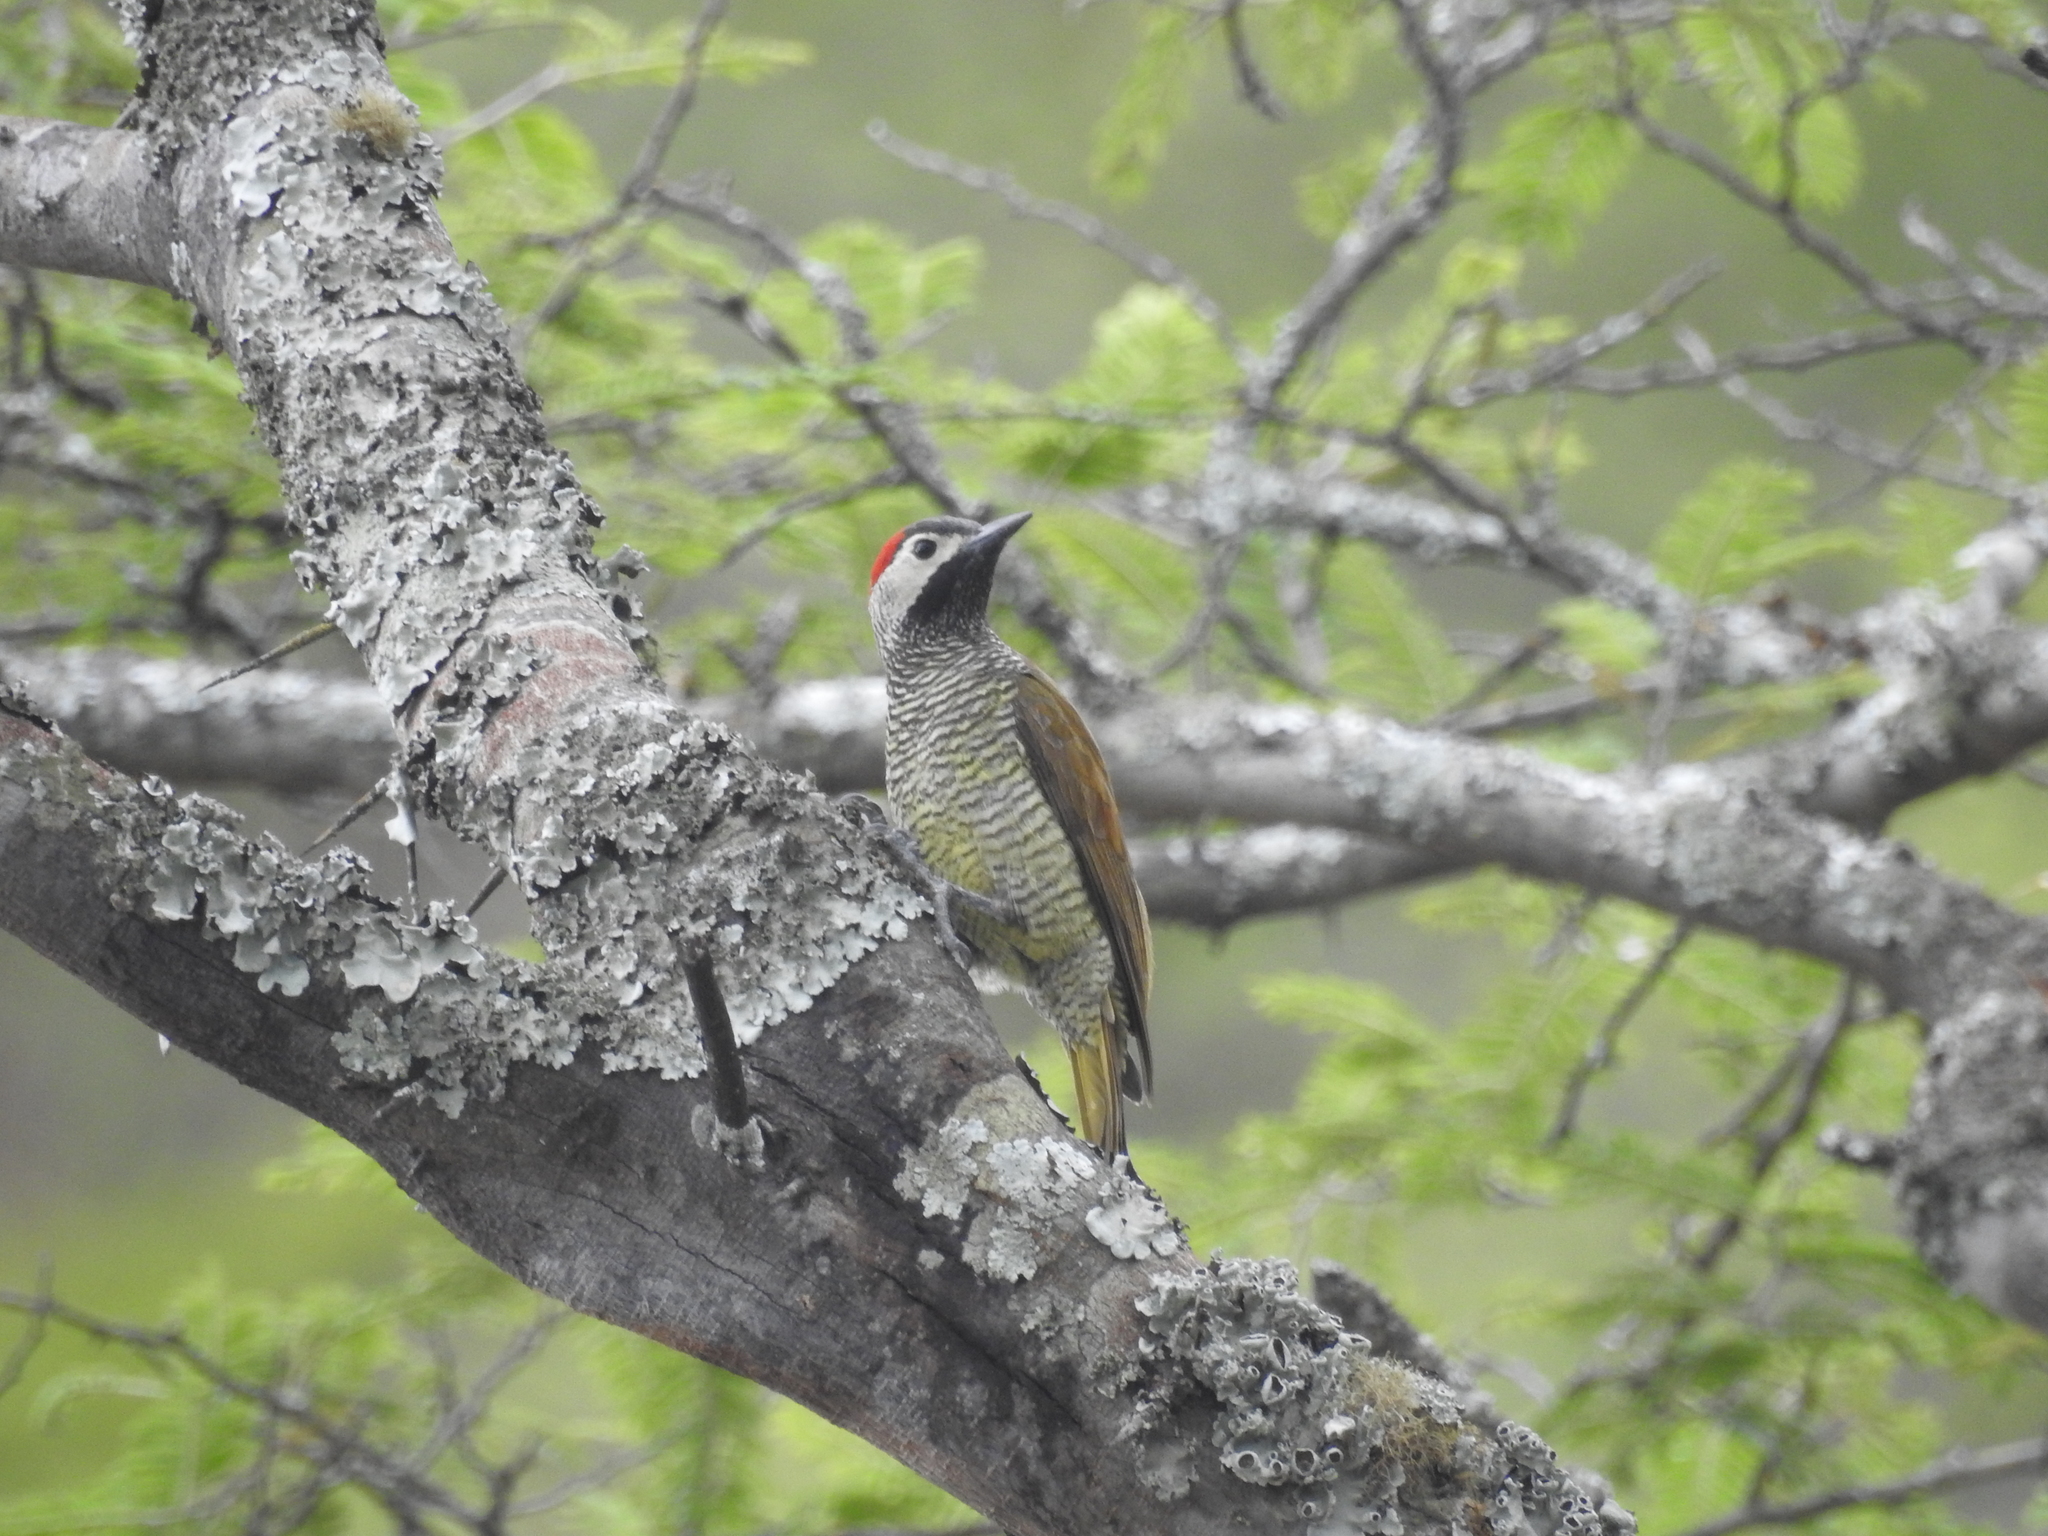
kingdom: Animalia
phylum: Chordata
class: Aves
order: Piciformes
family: Picidae
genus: Colaptes
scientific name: Colaptes rubiginosus
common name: Golden-olive woodpecker
